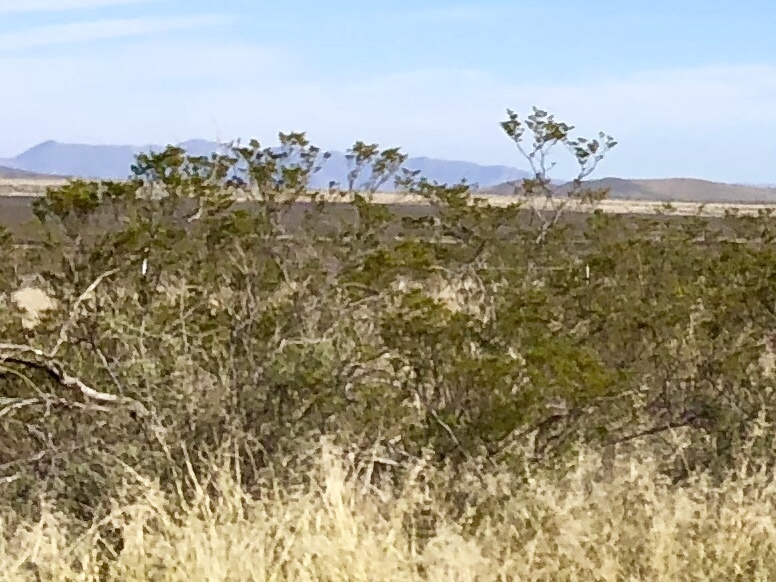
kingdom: Plantae
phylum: Tracheophyta
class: Magnoliopsida
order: Zygophyllales
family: Zygophyllaceae
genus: Larrea
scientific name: Larrea tridentata
